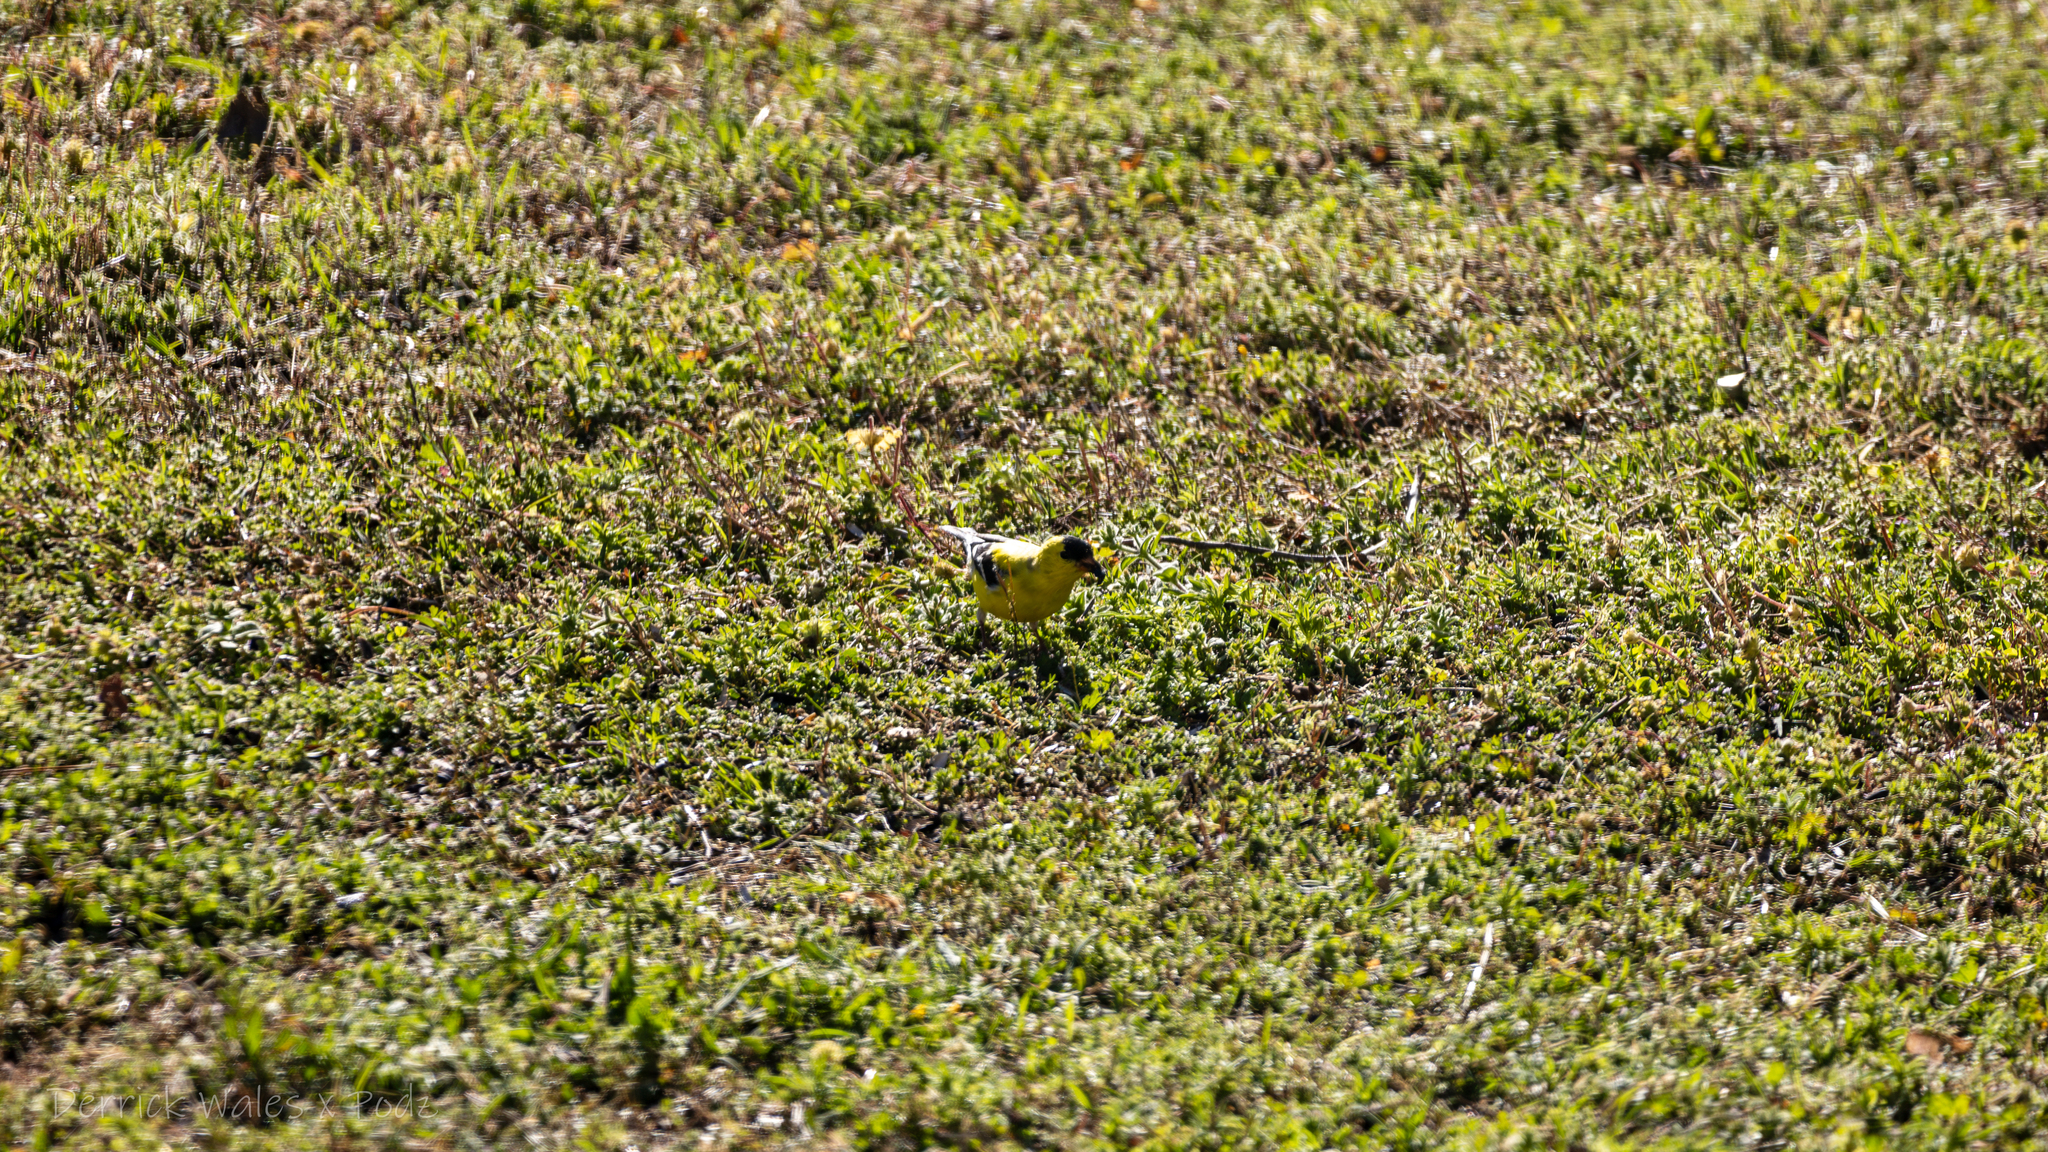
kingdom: Animalia
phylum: Chordata
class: Aves
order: Passeriformes
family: Fringillidae
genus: Spinus
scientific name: Spinus tristis
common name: American goldfinch
